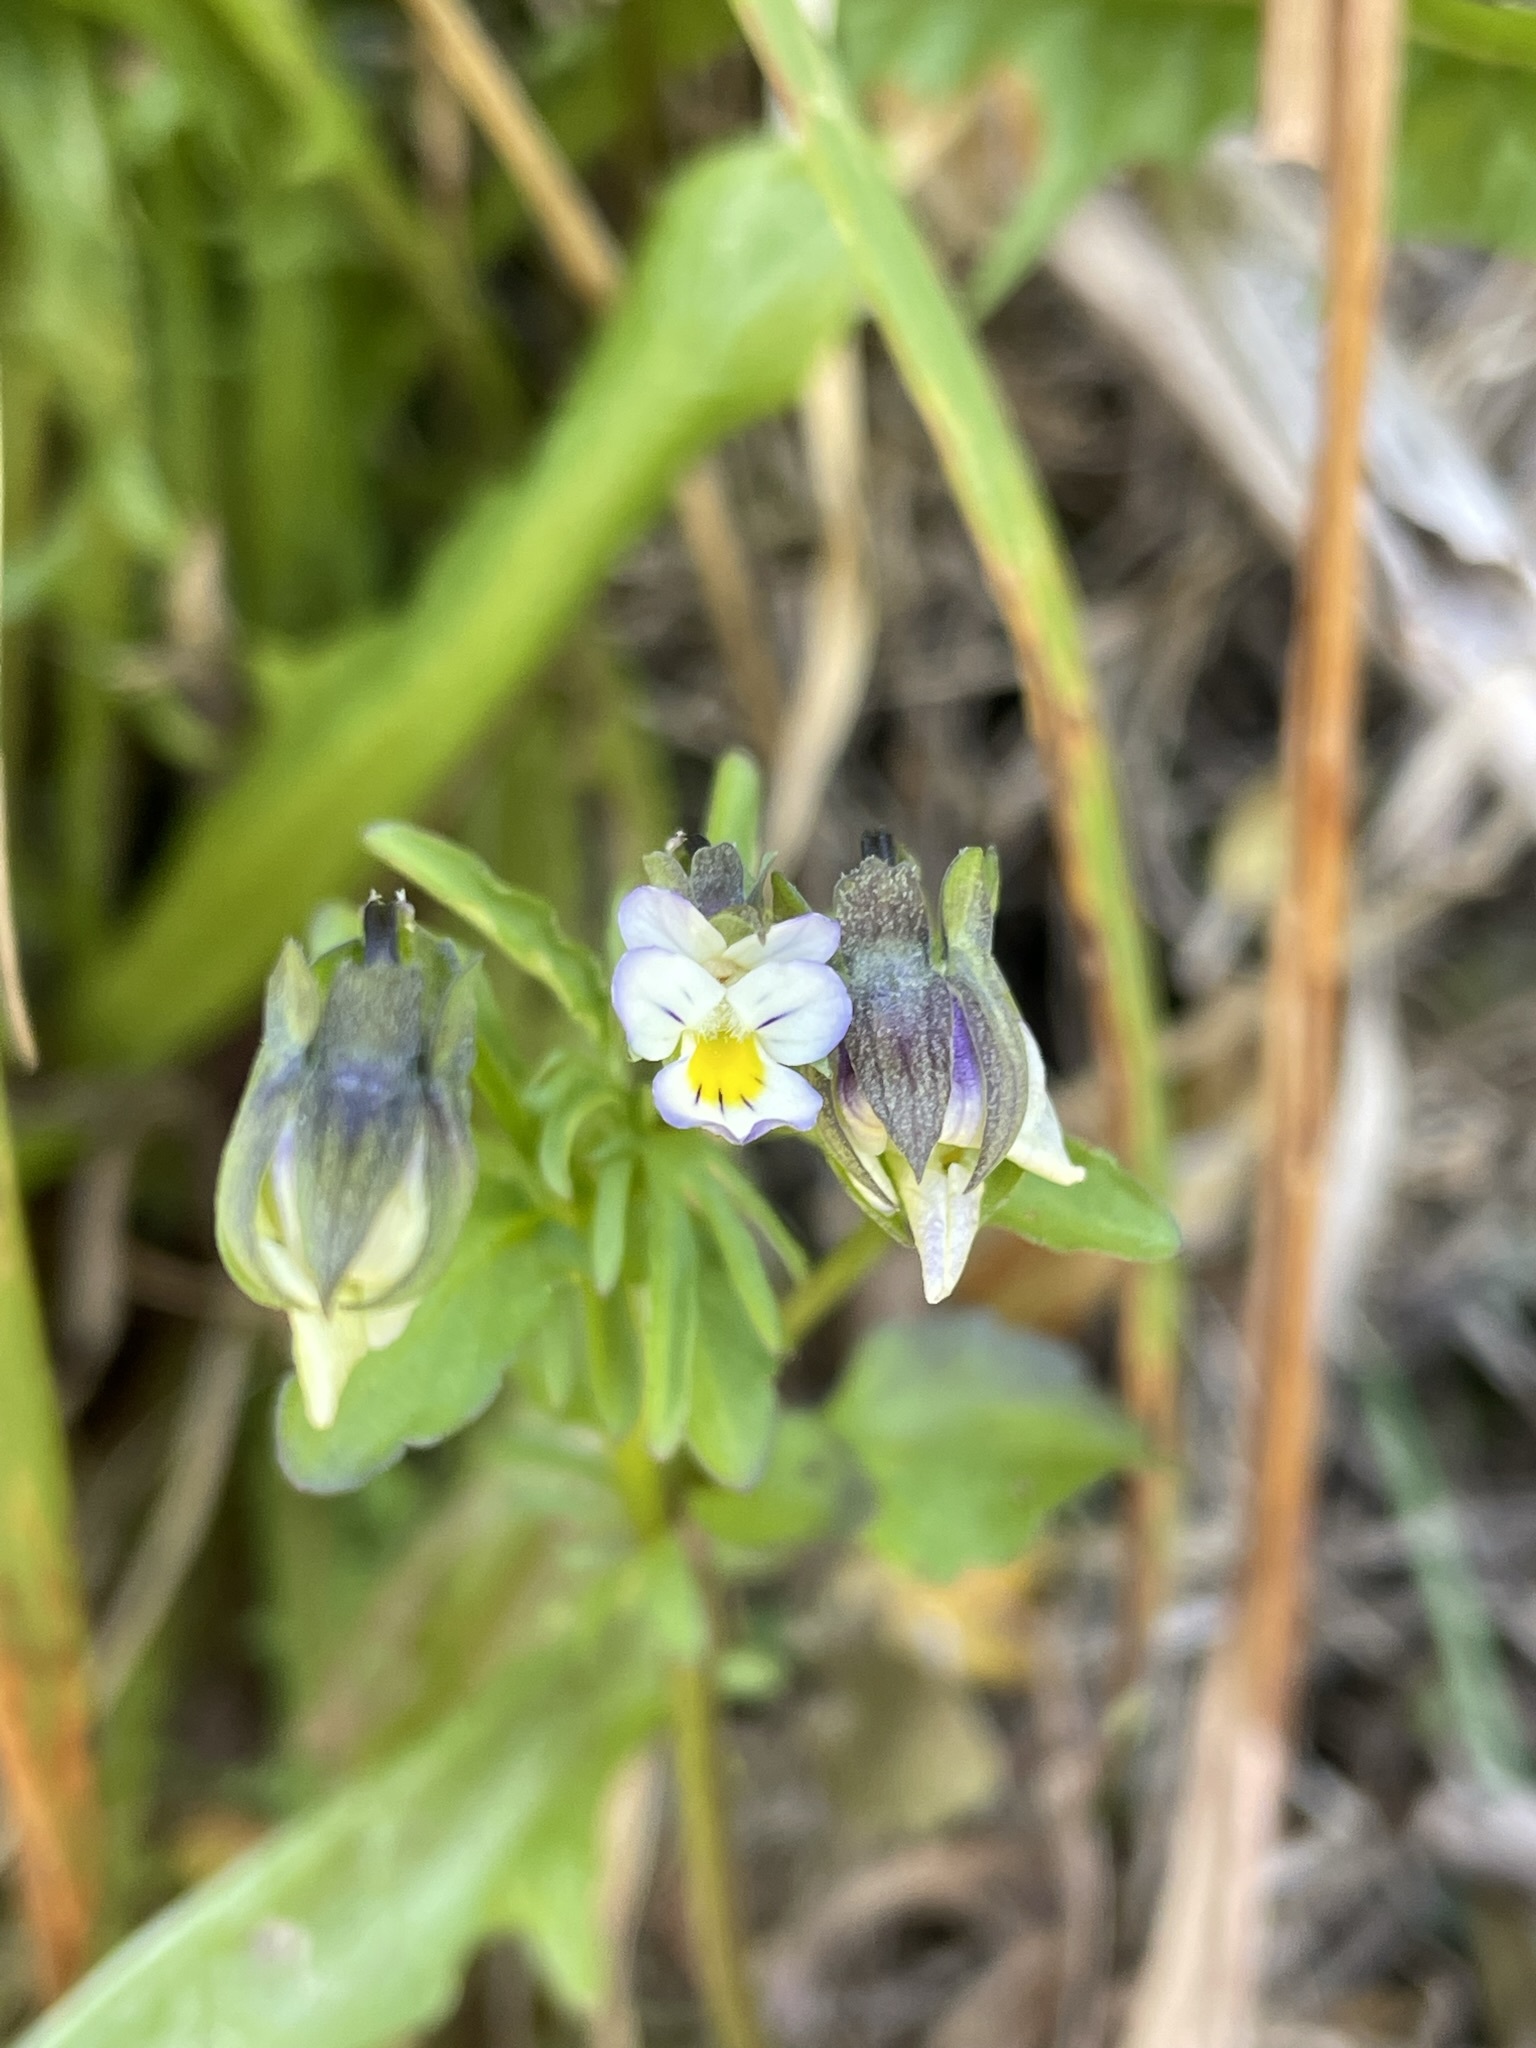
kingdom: Plantae
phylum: Tracheophyta
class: Magnoliopsida
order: Malpighiales
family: Violaceae
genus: Viola
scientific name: Viola arvensis
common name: Field pansy
